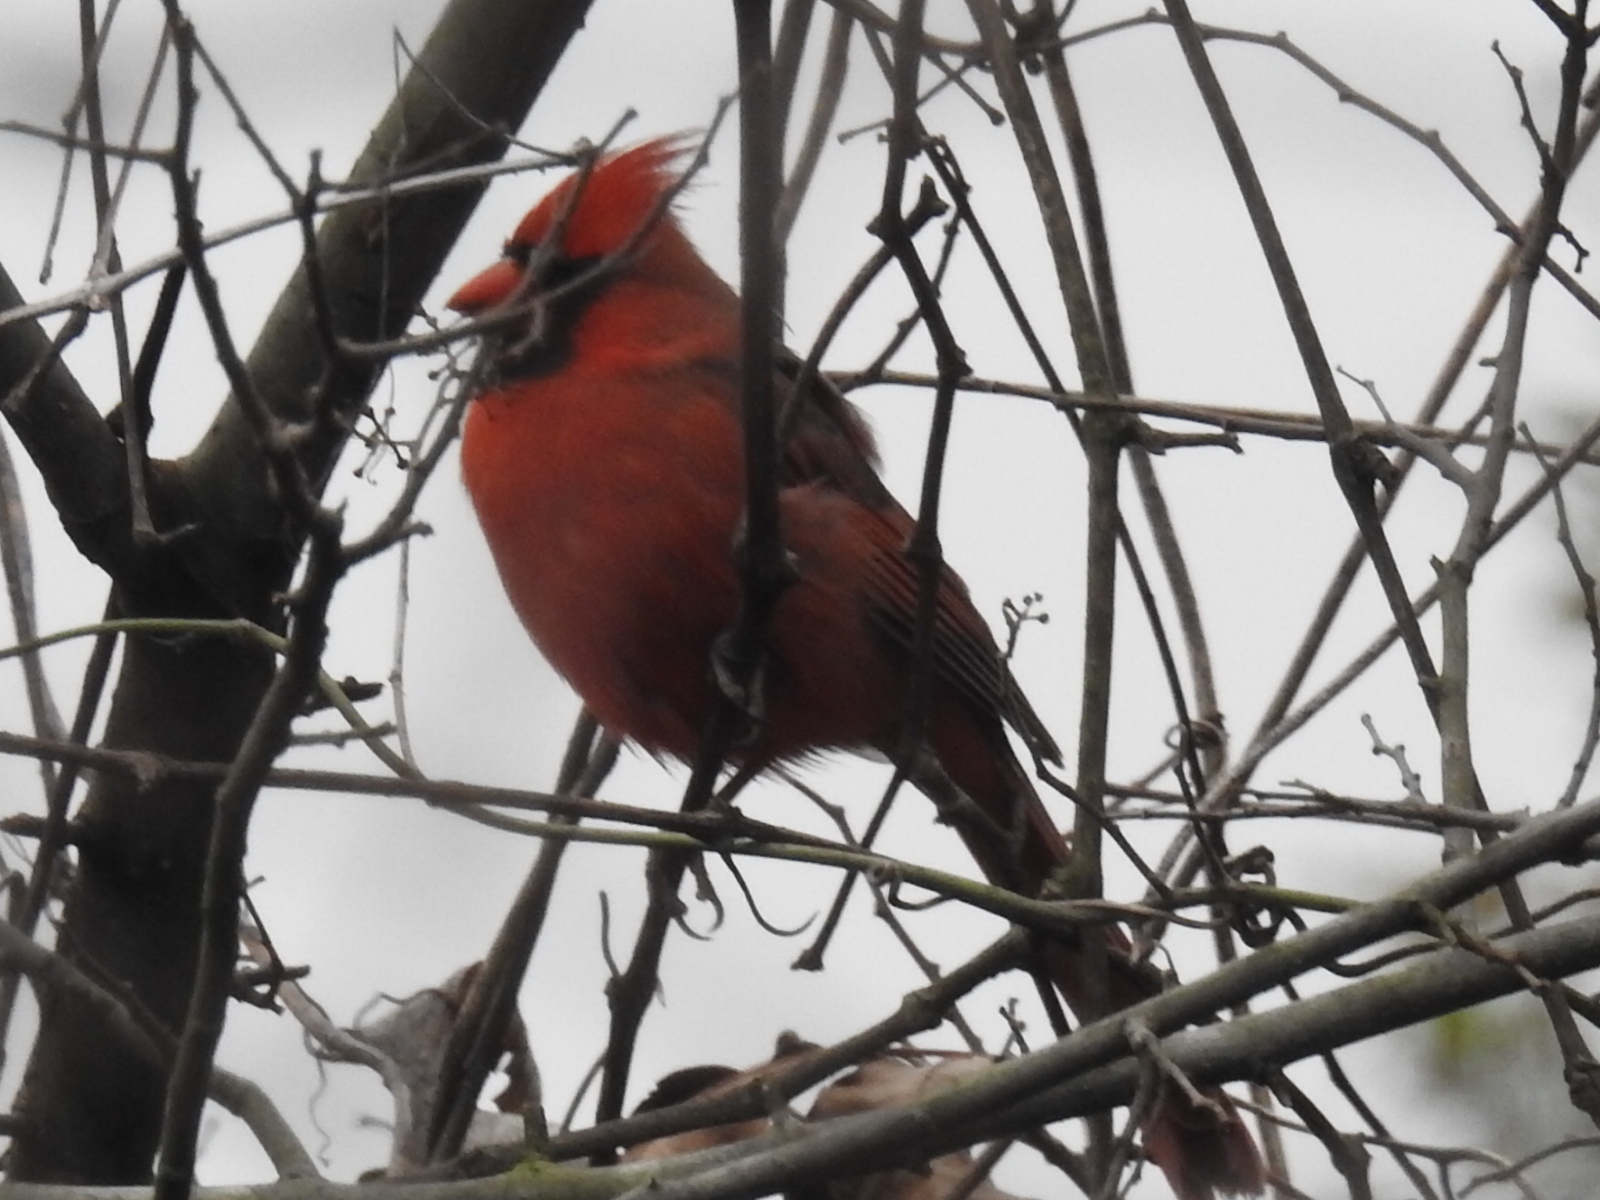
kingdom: Animalia
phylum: Chordata
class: Aves
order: Passeriformes
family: Cardinalidae
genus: Cardinalis
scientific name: Cardinalis cardinalis
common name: Northern cardinal
